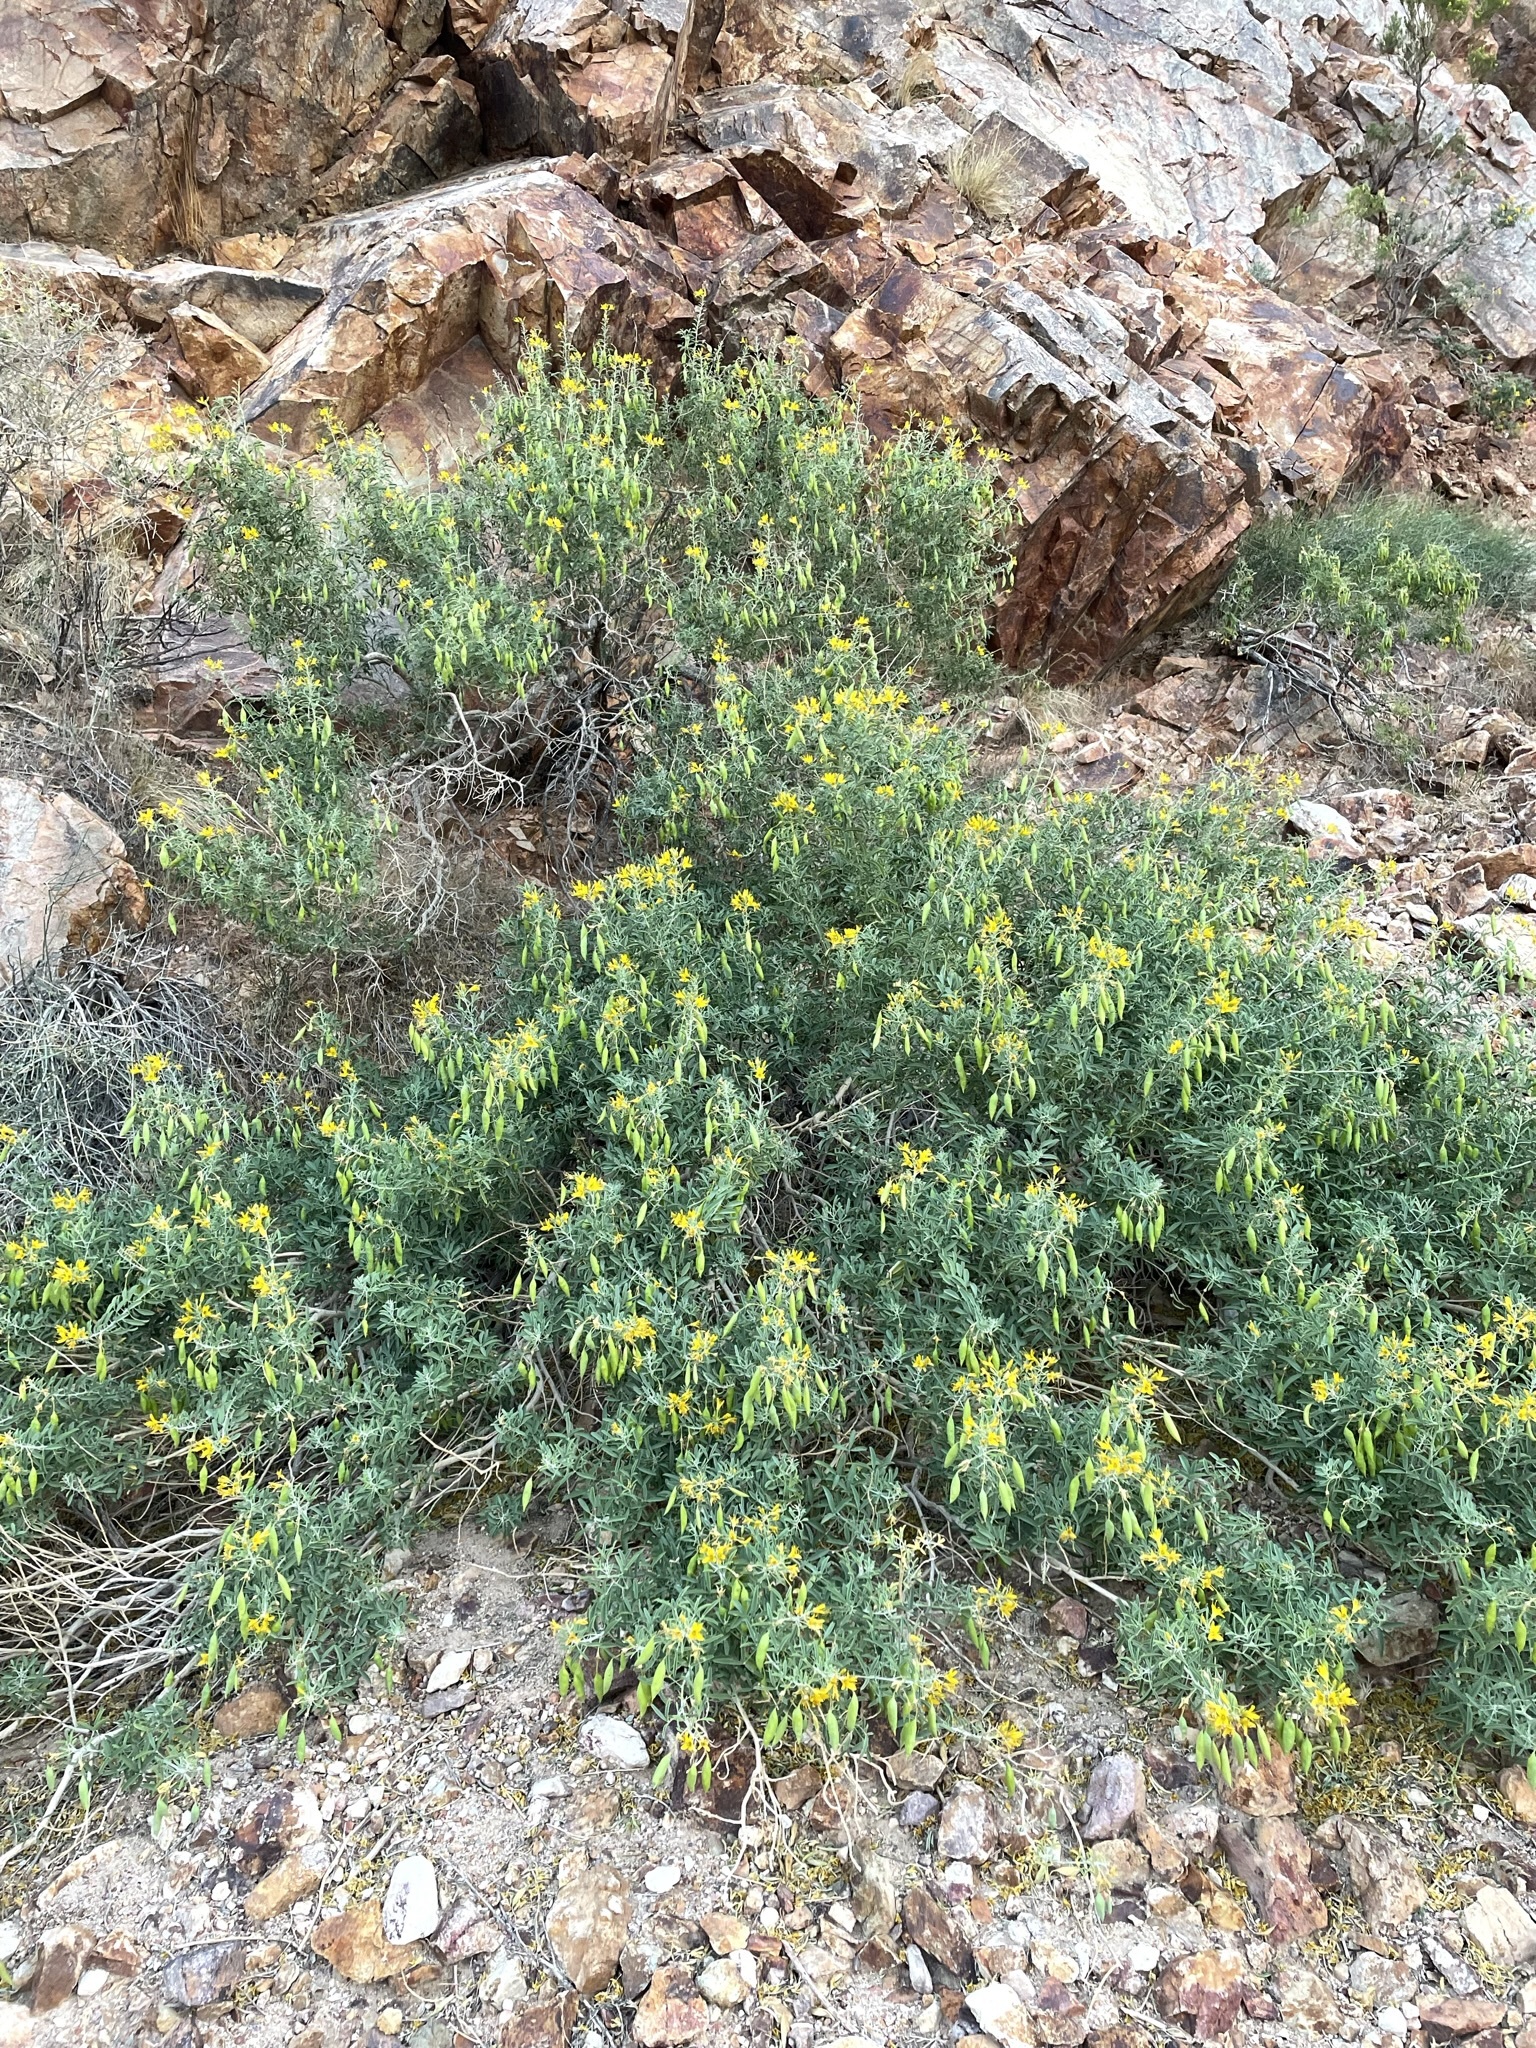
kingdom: Plantae
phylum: Tracheophyta
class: Magnoliopsida
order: Brassicales
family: Cleomaceae
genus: Cleomella
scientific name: Cleomella arborea
